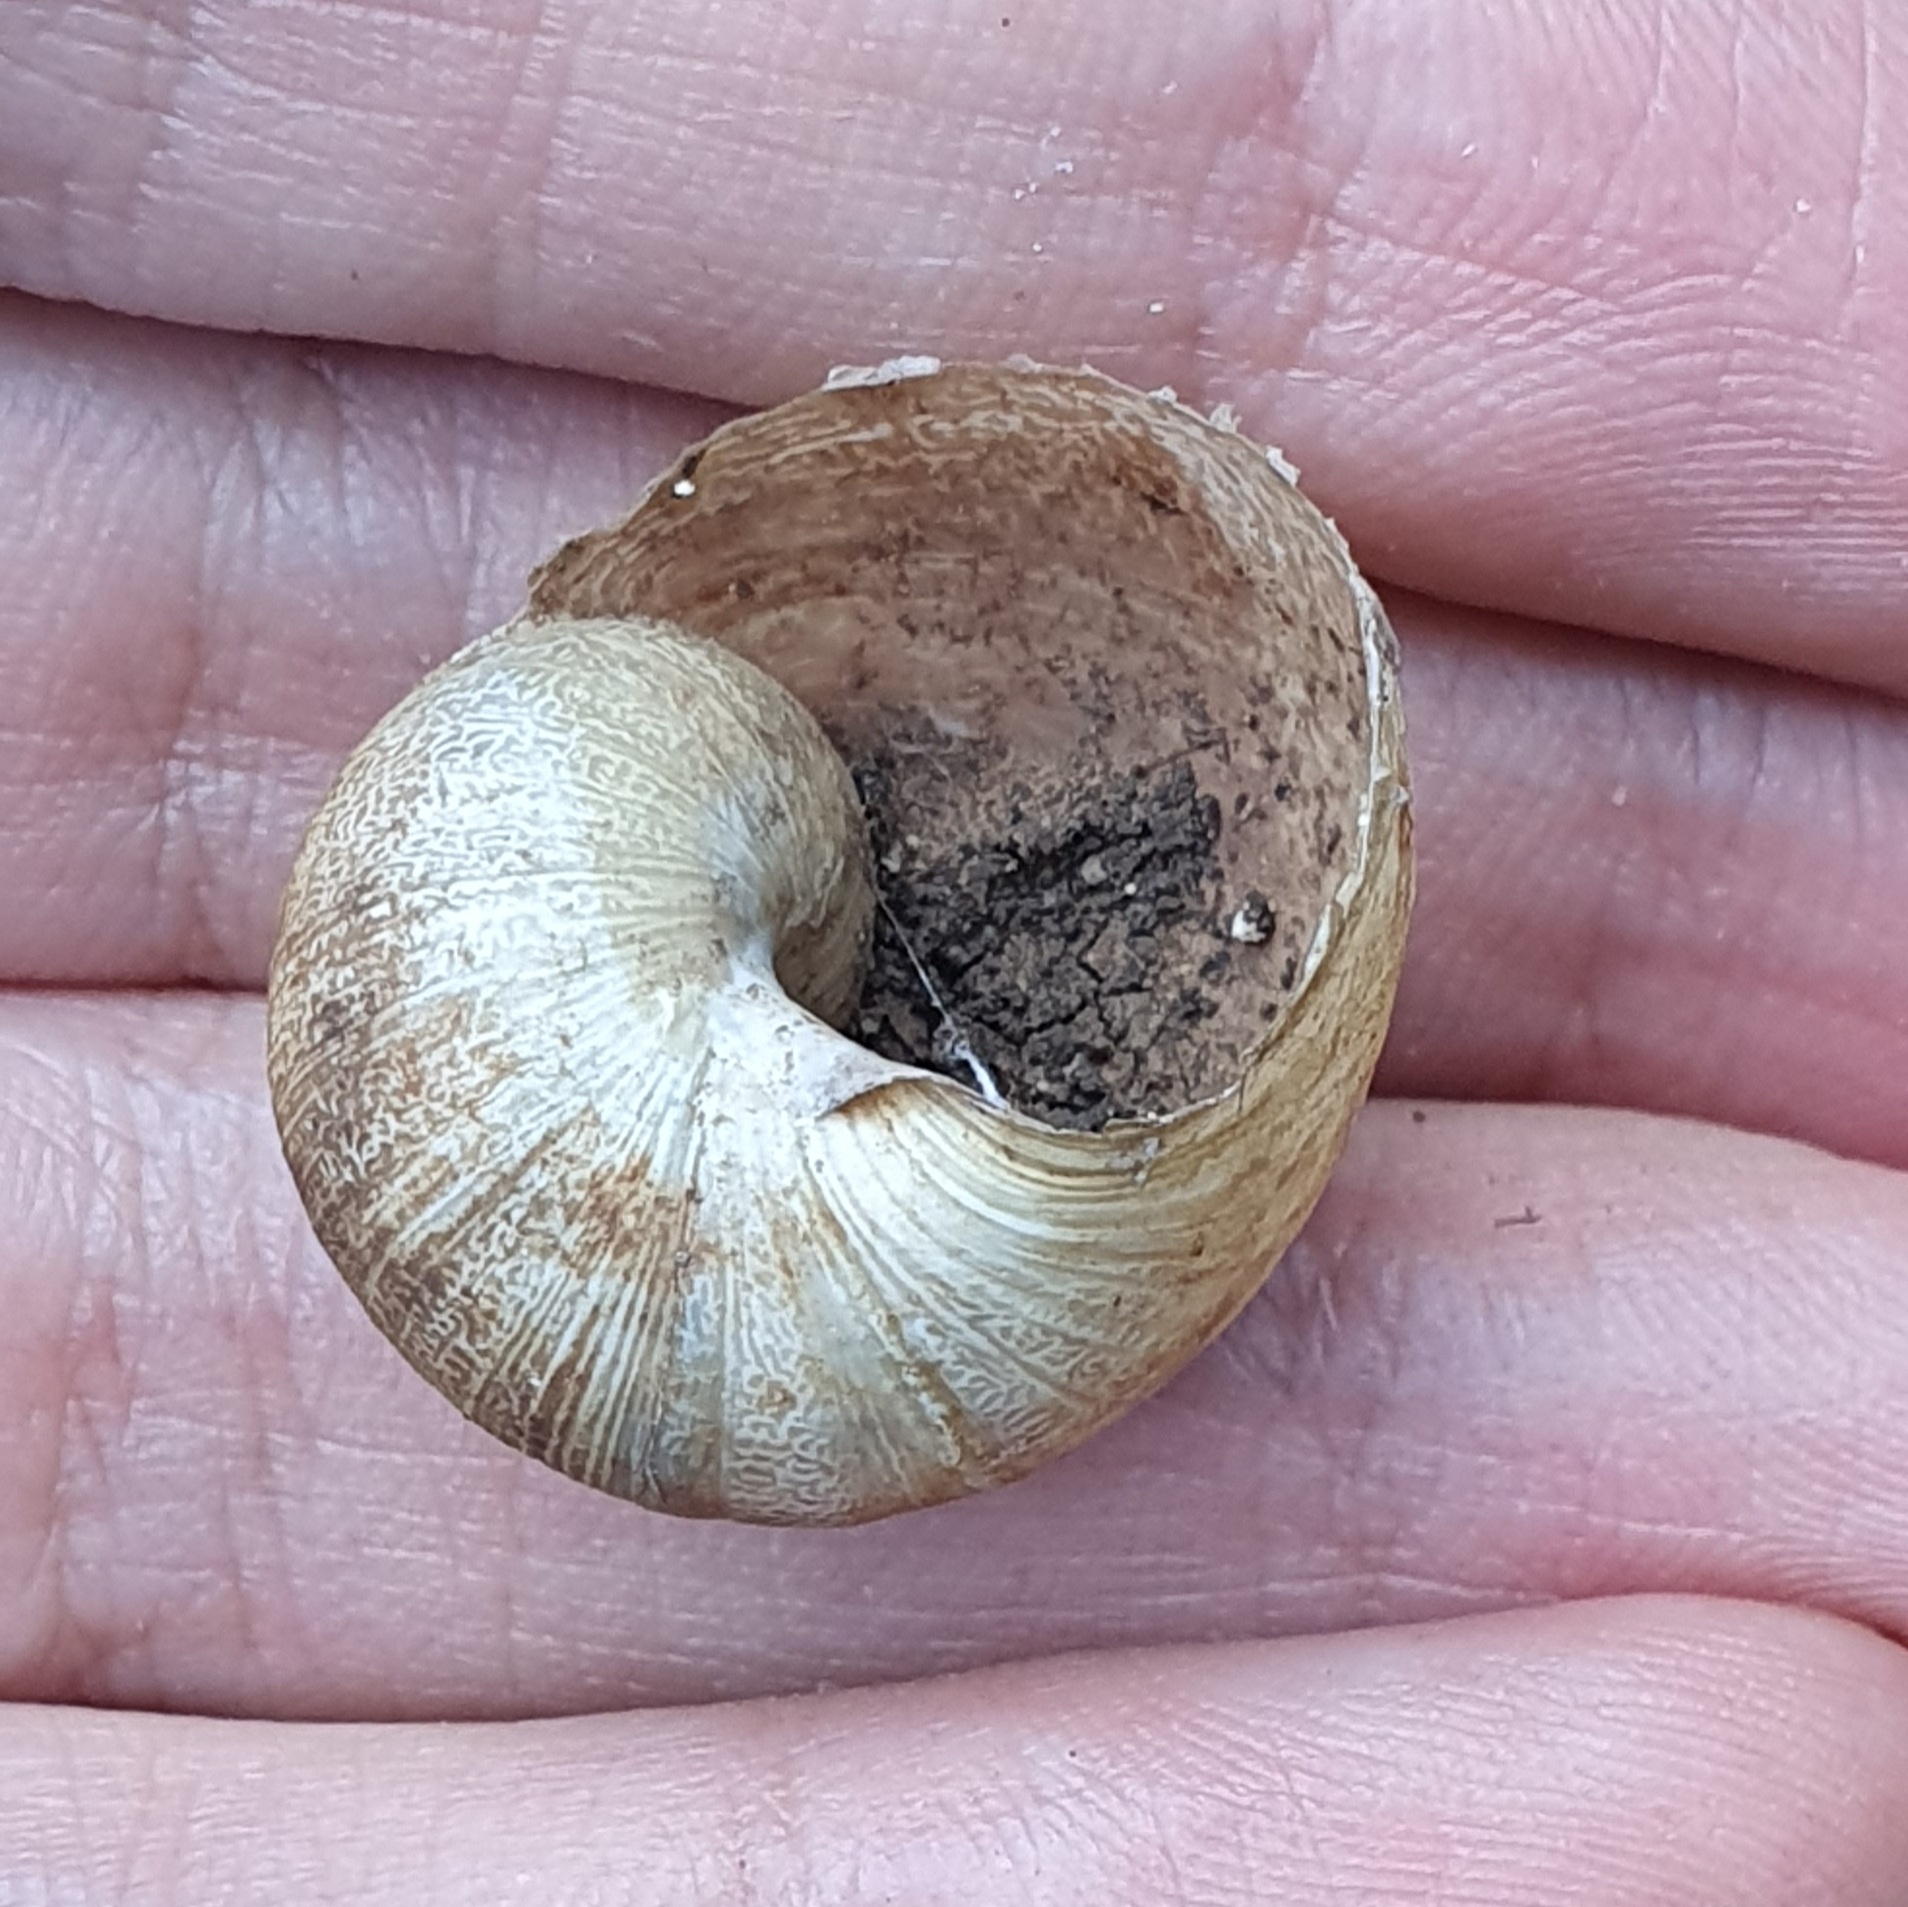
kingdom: Animalia
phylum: Mollusca
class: Gastropoda
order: Stylommatophora
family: Helicidae
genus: Cornu
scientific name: Cornu aspersum
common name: Brown garden snail
